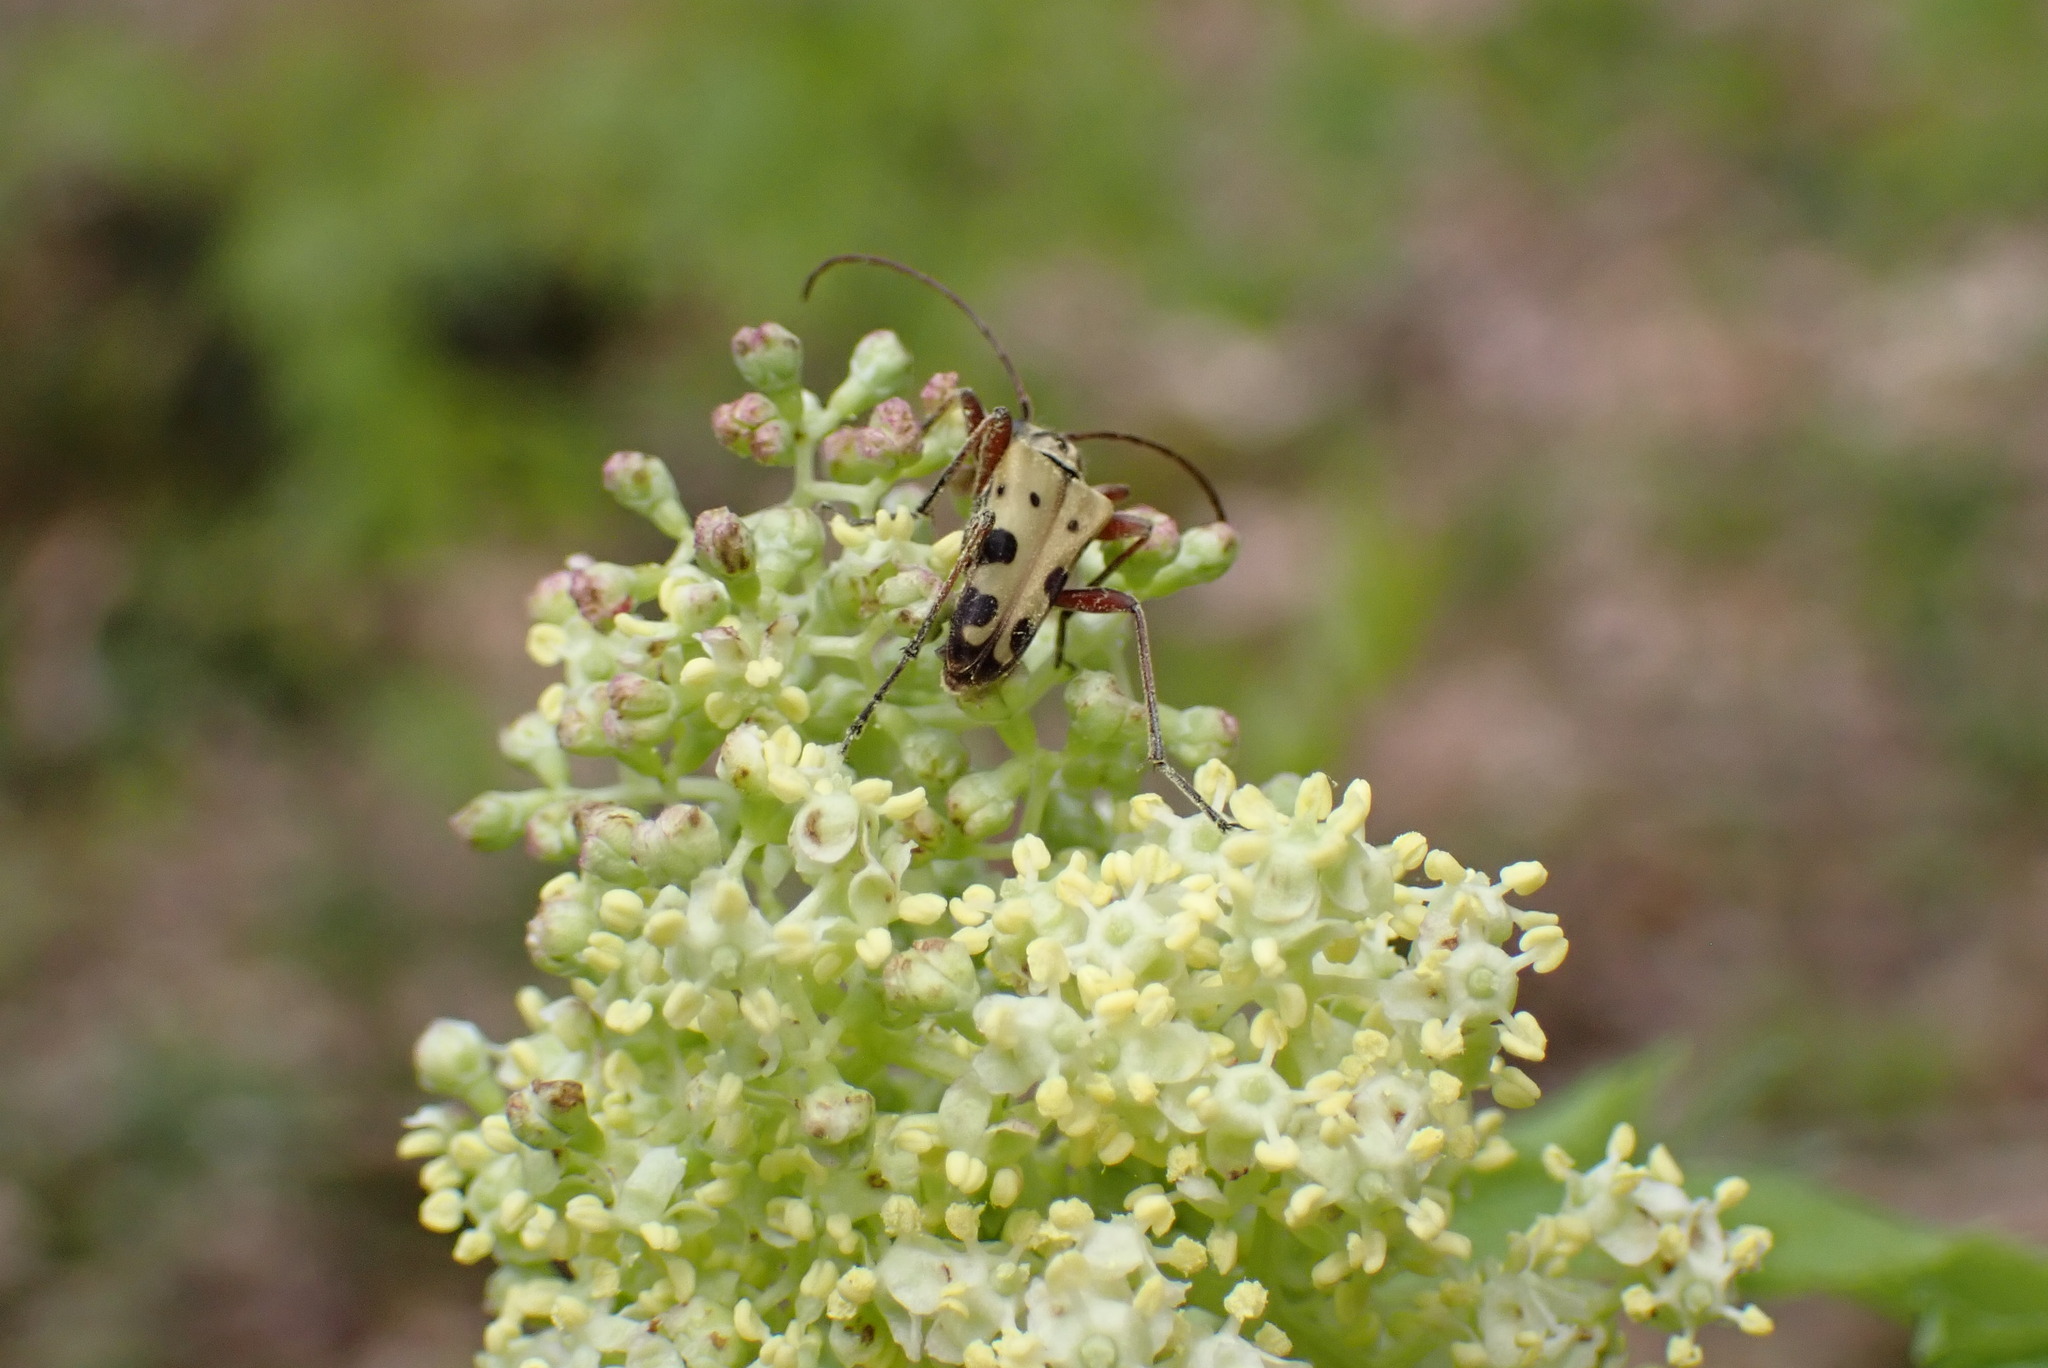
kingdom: Animalia
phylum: Arthropoda
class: Insecta
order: Coleoptera
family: Cerambycidae
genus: Evodinus
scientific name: Evodinus monticola
